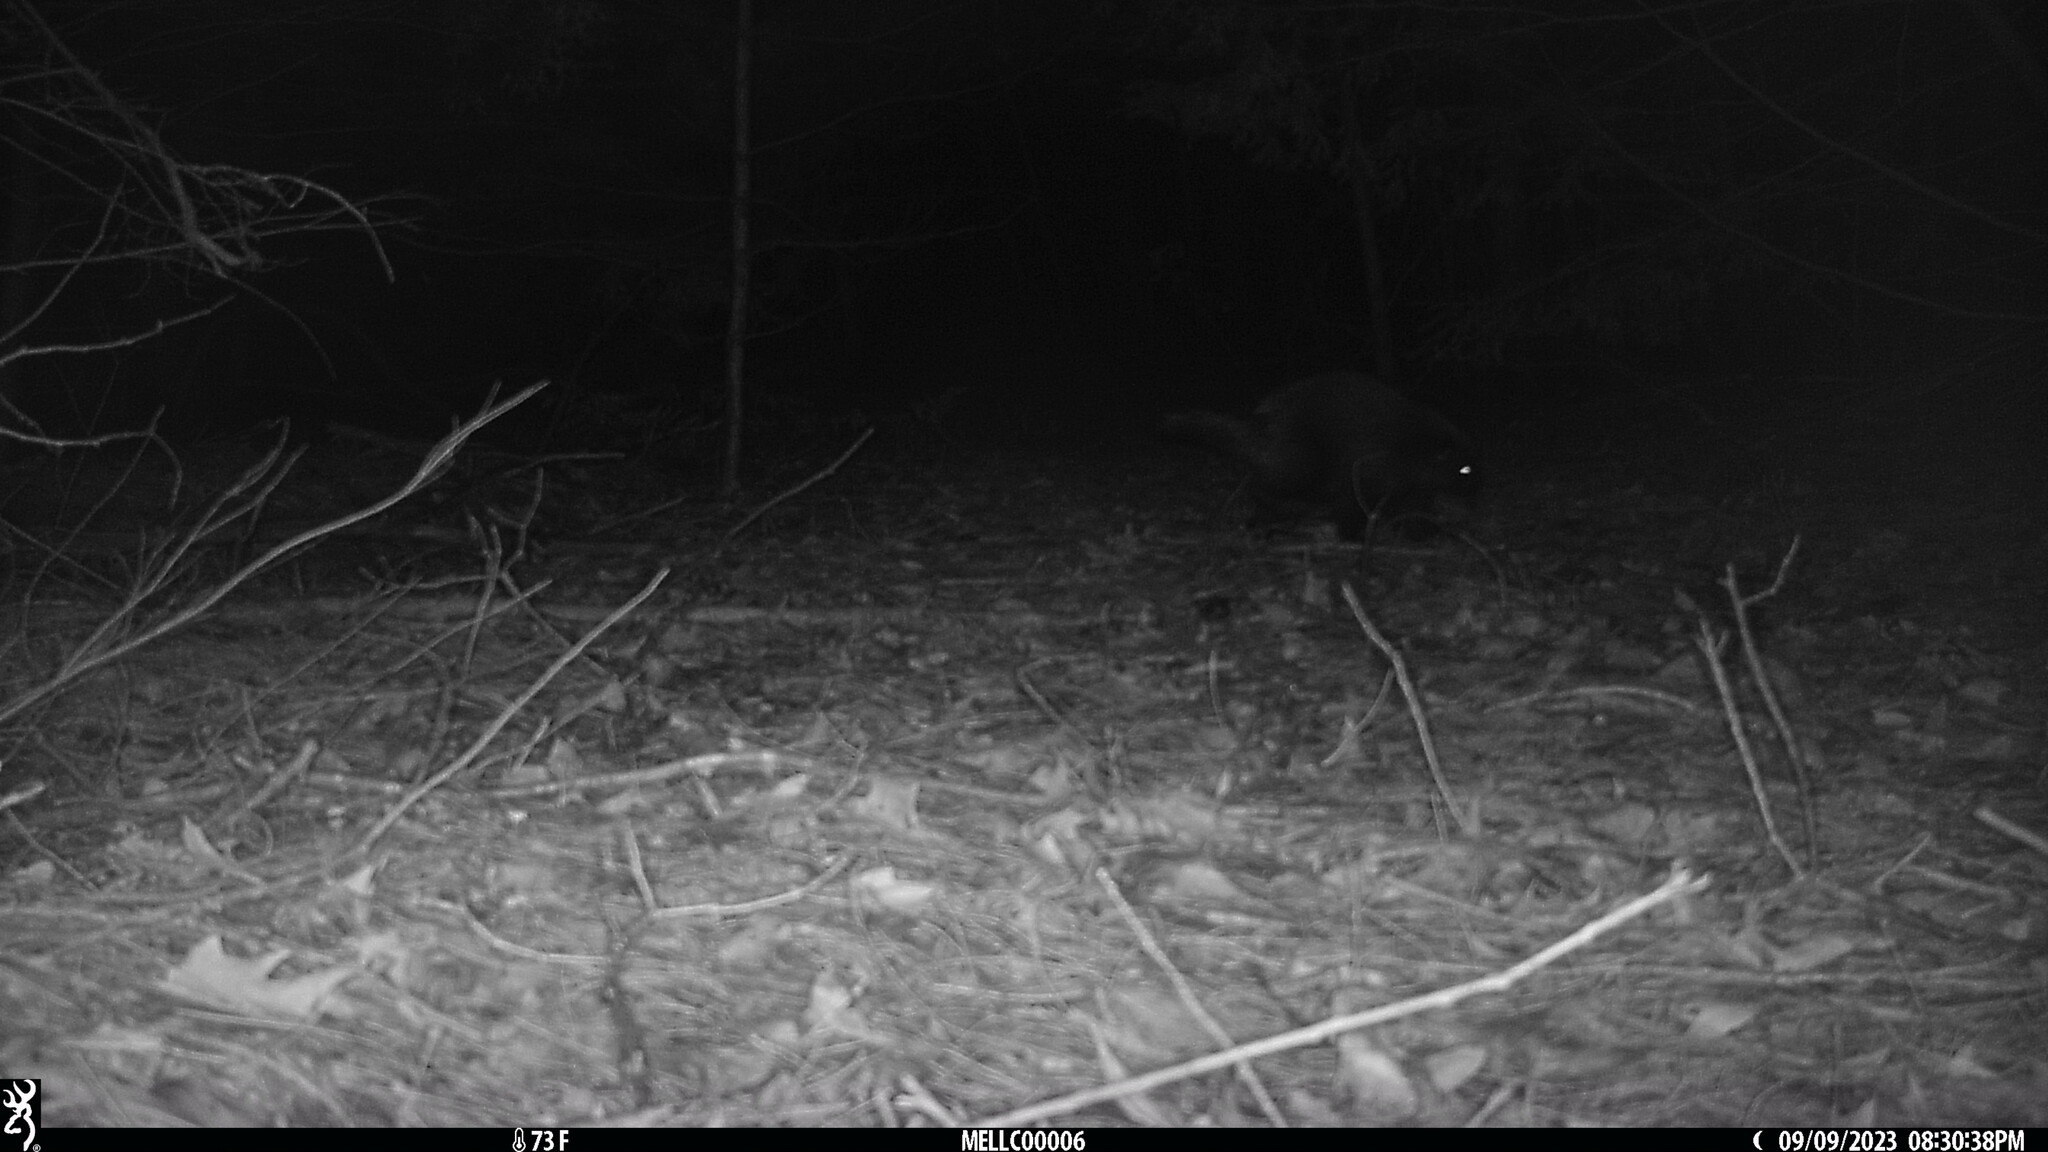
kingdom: Animalia
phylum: Chordata
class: Mammalia
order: Rodentia
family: Erethizontidae
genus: Erethizon
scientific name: Erethizon dorsatus
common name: North american porcupine
